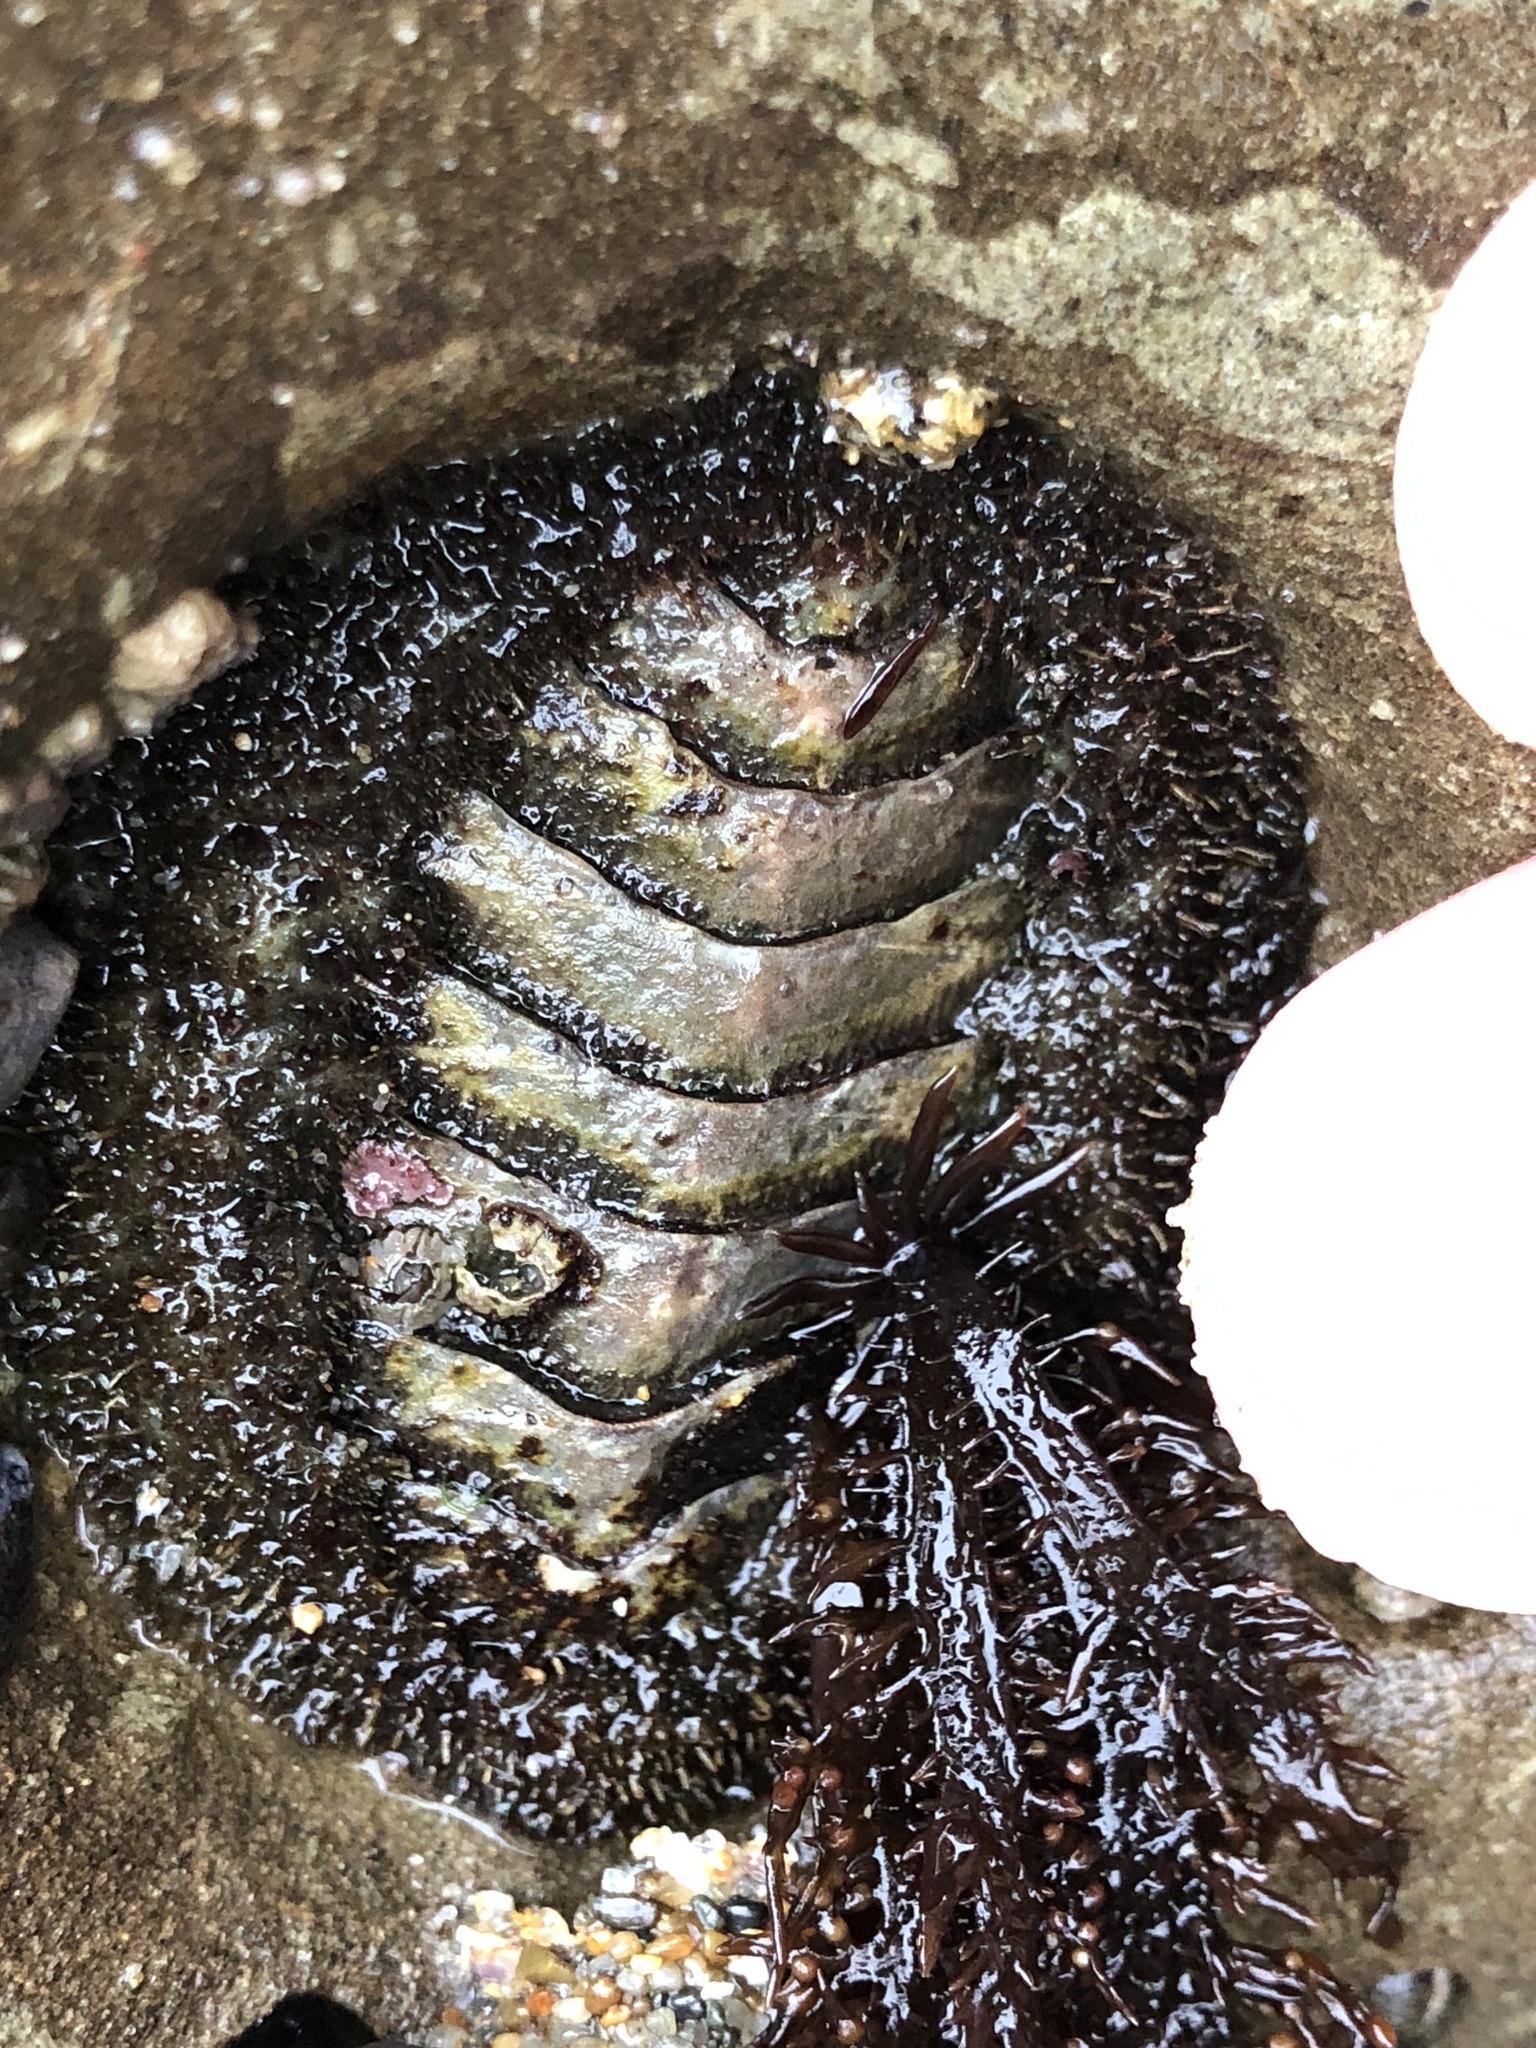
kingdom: Animalia
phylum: Mollusca
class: Polyplacophora
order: Chitonida
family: Mopaliidae
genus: Mopalia
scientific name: Mopalia muscosa
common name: Mossy chiton
